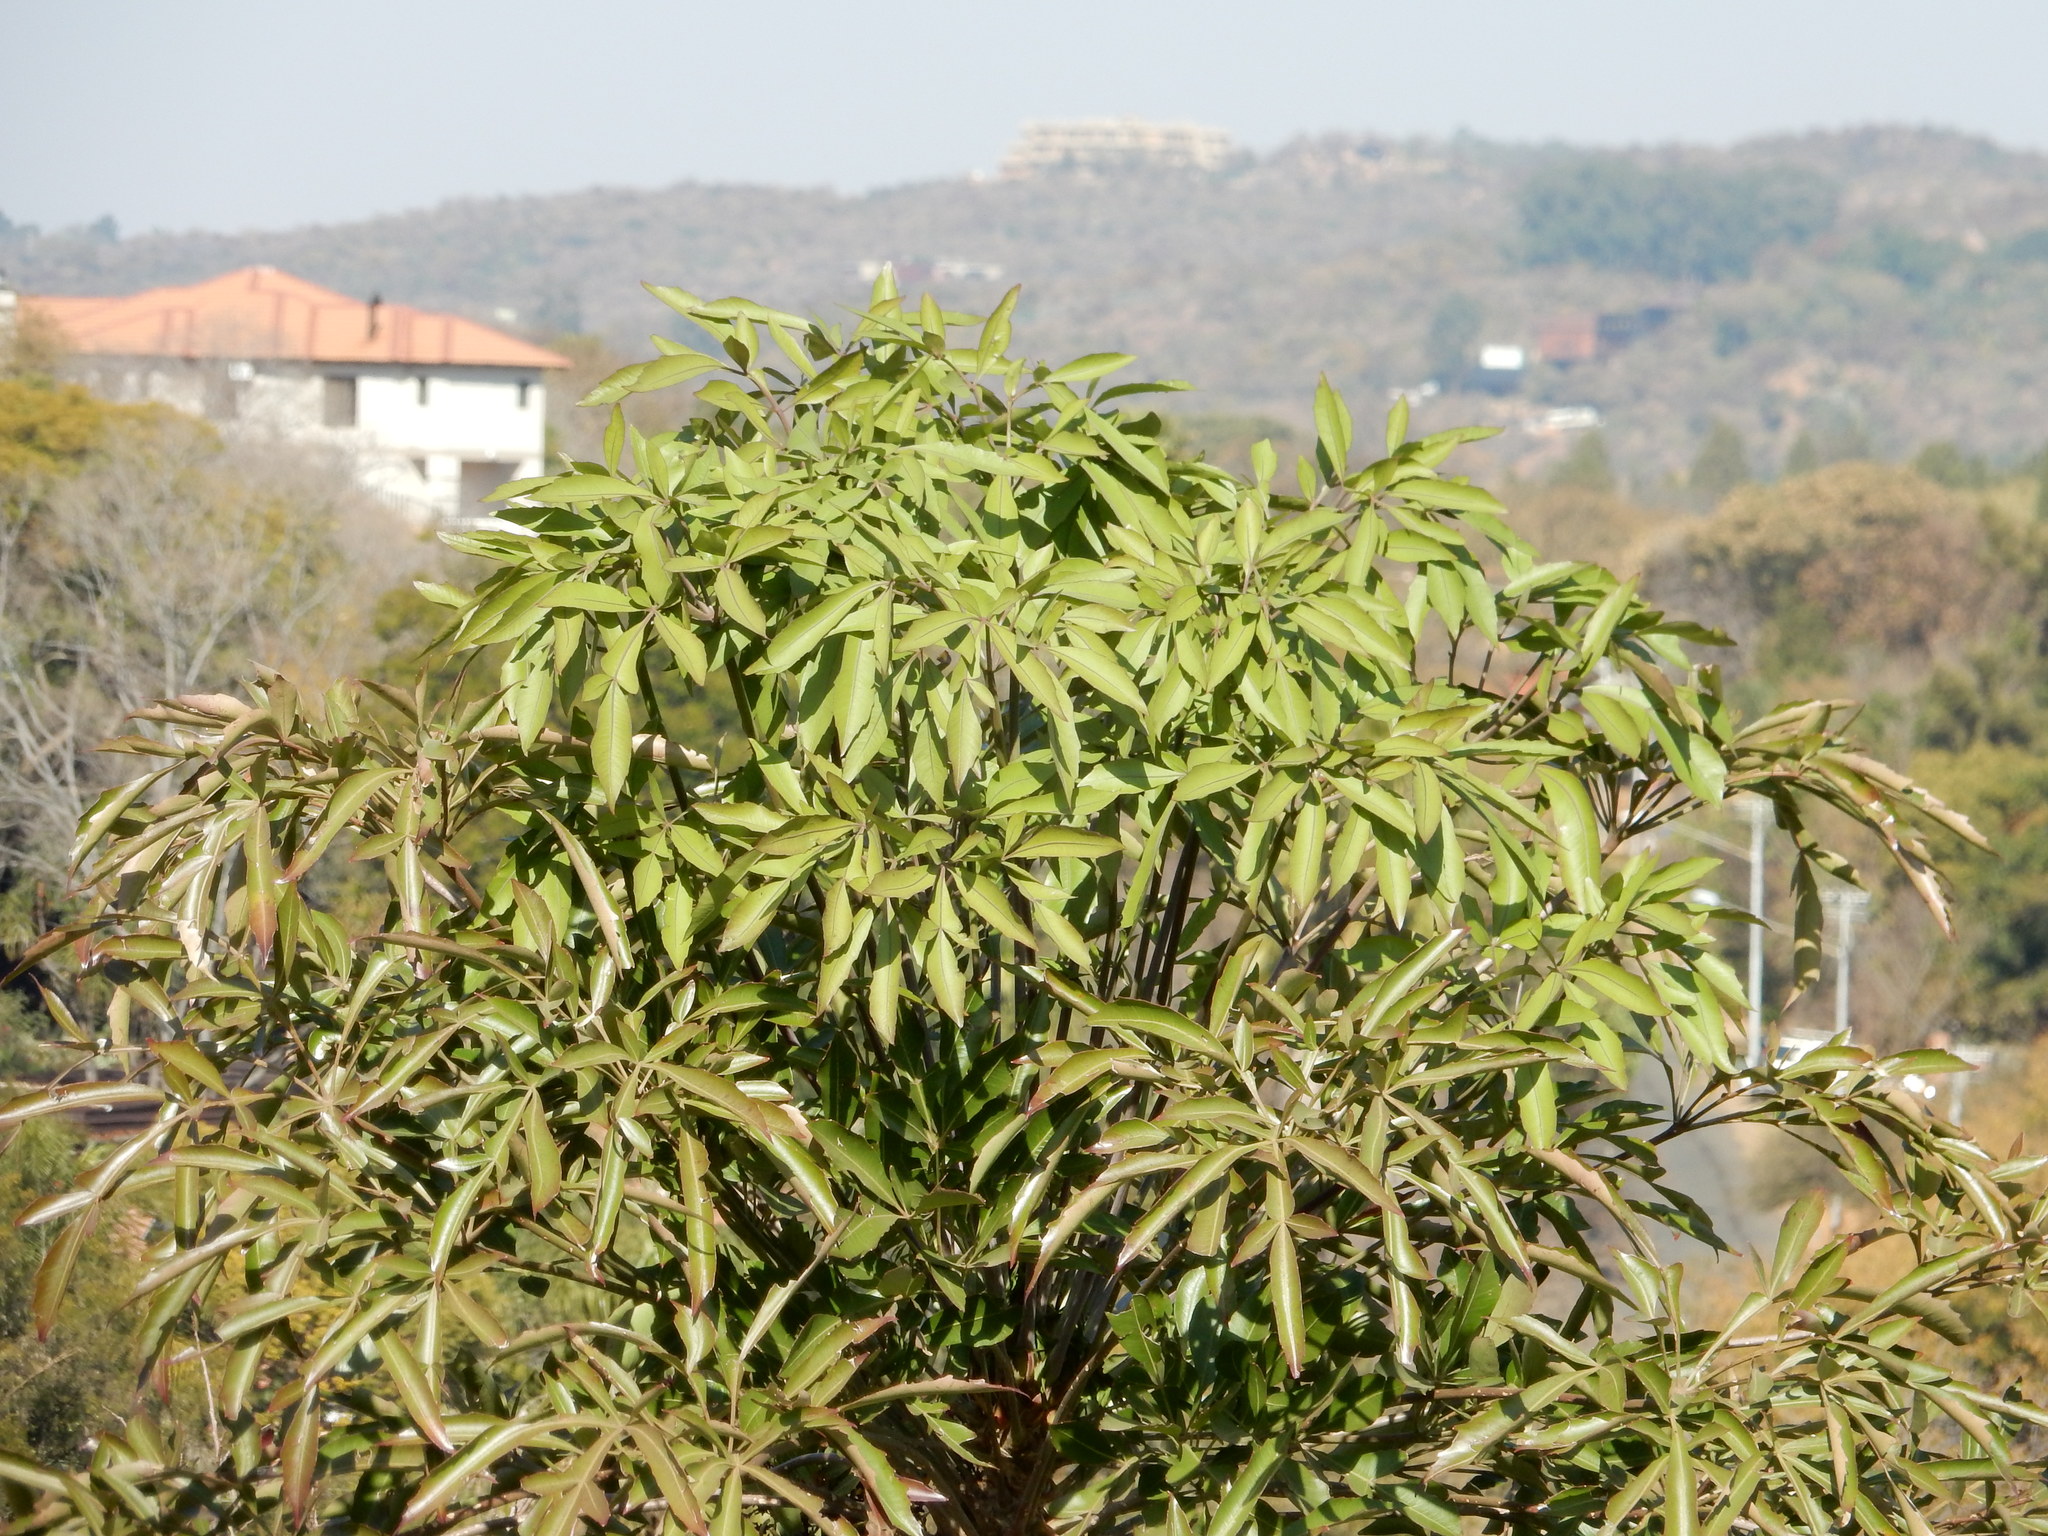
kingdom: Plantae
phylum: Tracheophyta
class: Magnoliopsida
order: Apiales
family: Araliaceae
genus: Cussonia
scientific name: Cussonia spicata
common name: Common cabbagetree
